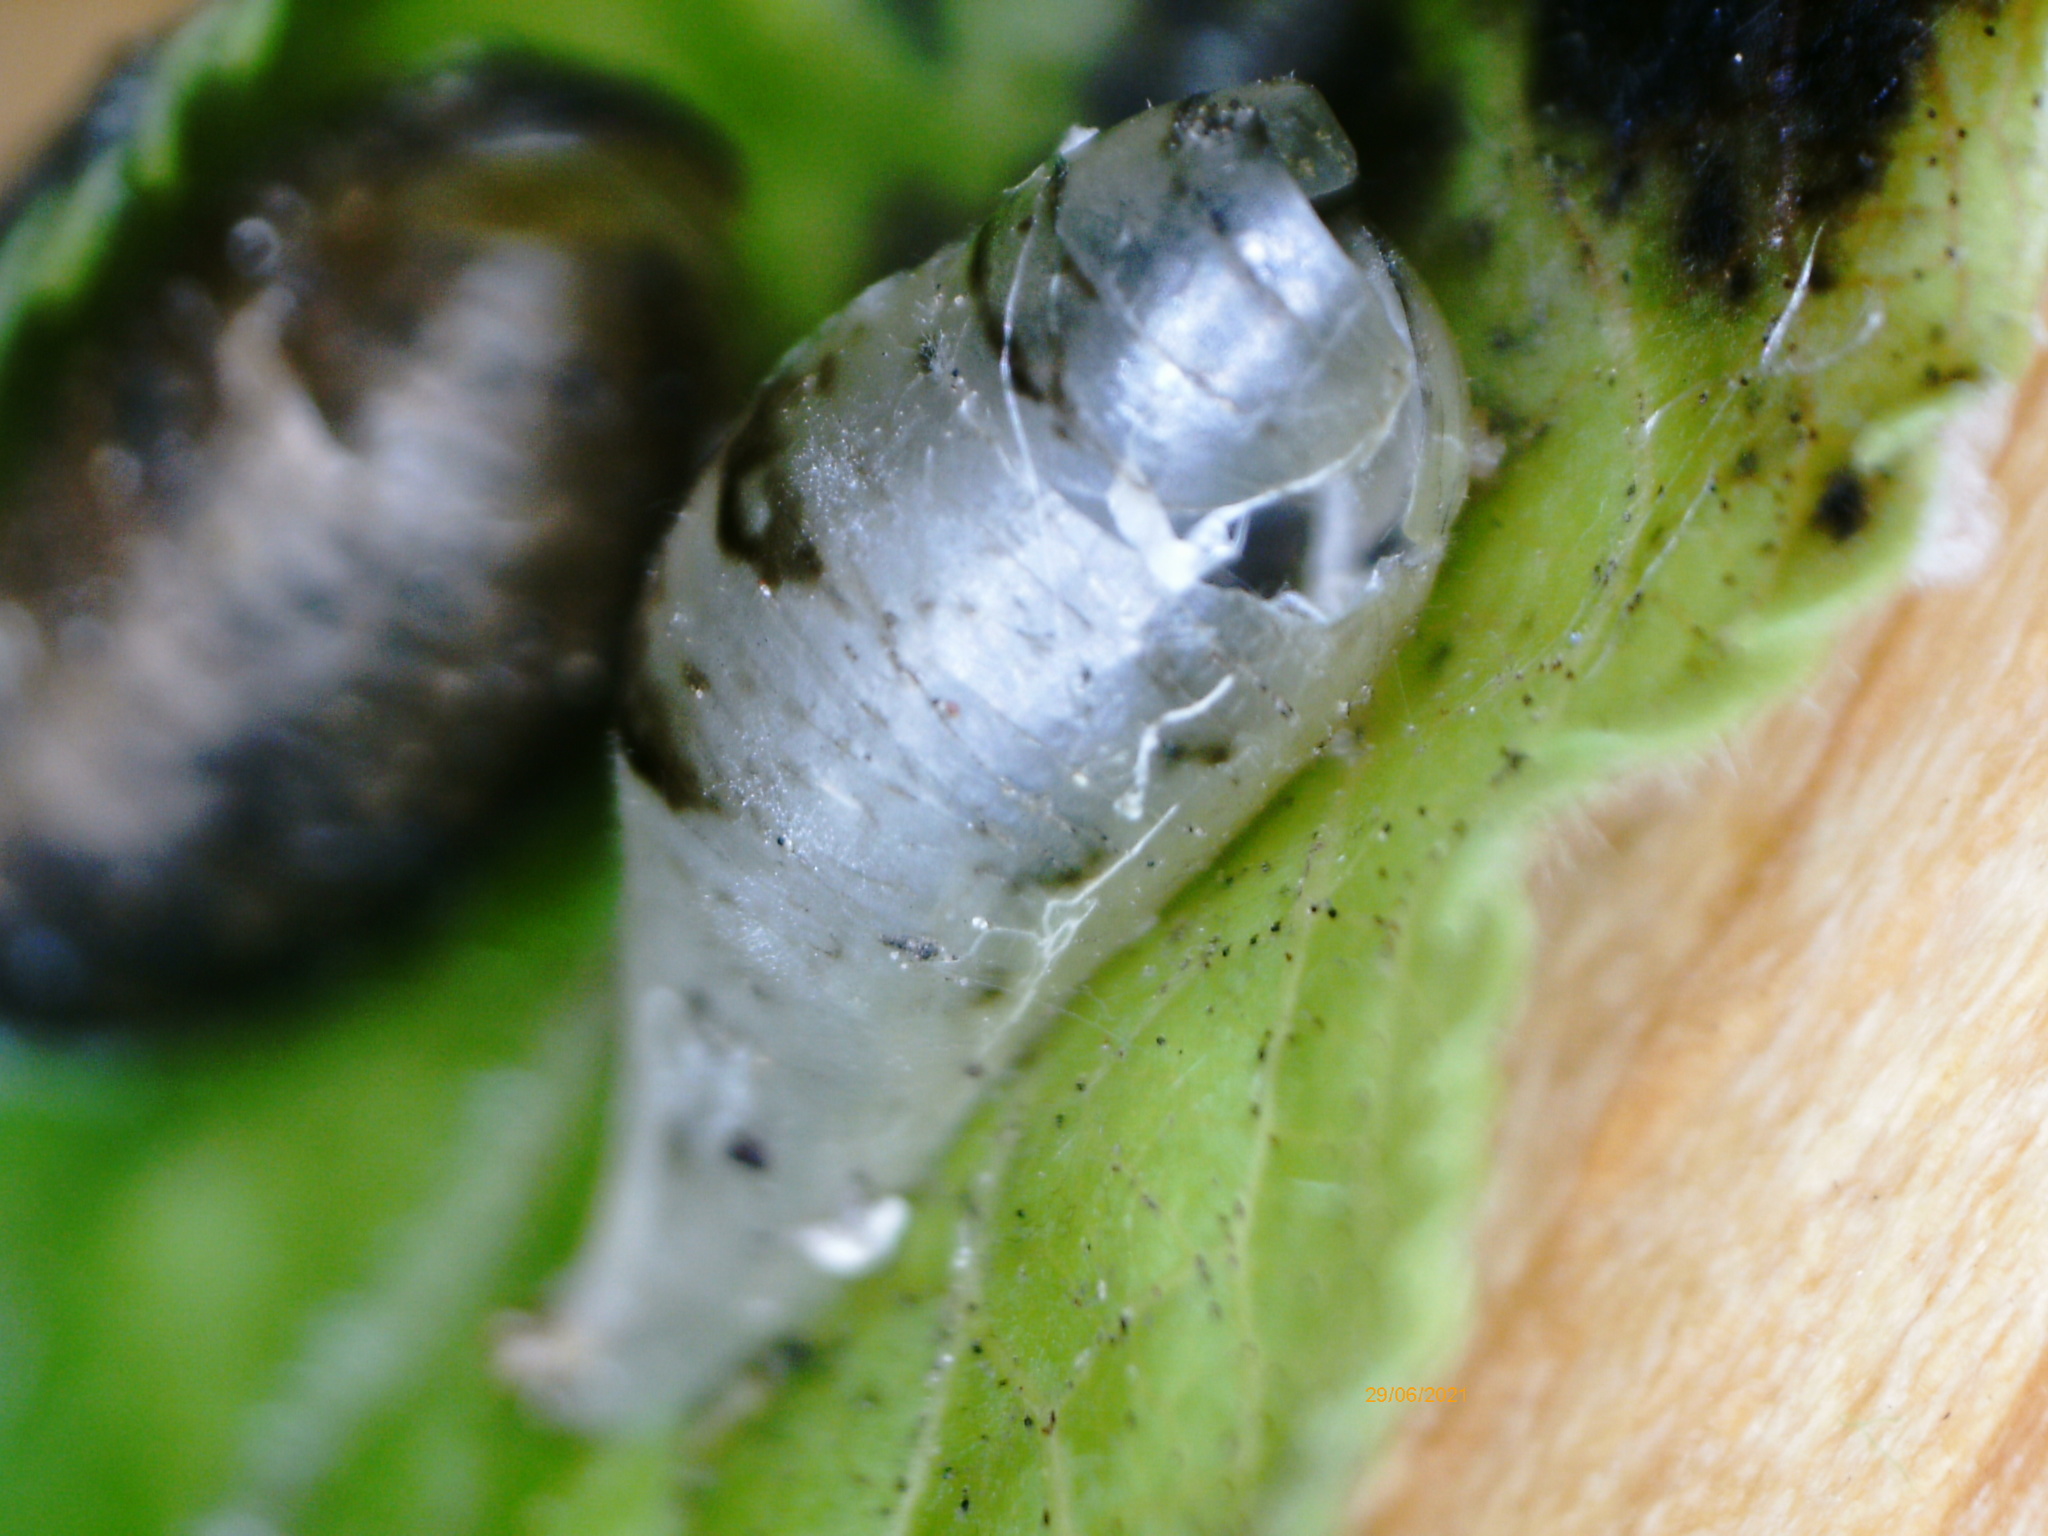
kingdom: Animalia
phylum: Arthropoda
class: Insecta
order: Diptera
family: Syrphidae
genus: Episyrphus
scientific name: Episyrphus balteatus
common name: Marmalade hoverfly
